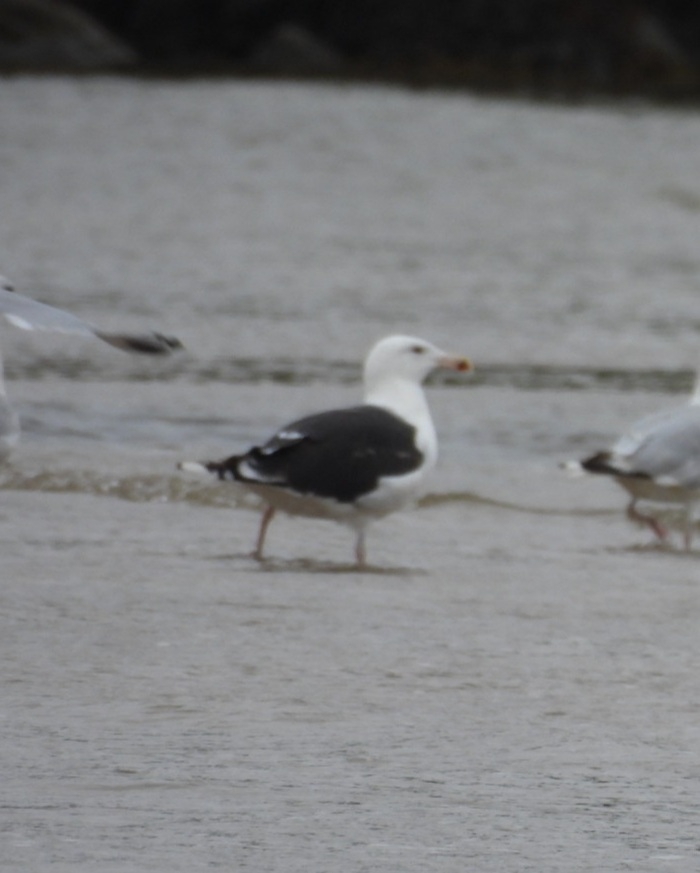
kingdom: Animalia
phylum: Chordata
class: Aves
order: Charadriiformes
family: Laridae
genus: Larus
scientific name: Larus marinus
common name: Great black-backed gull
